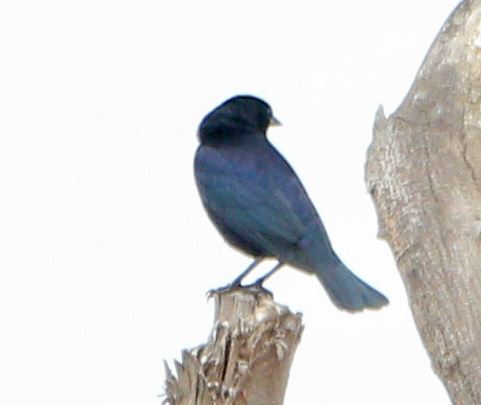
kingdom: Animalia
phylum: Chordata
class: Aves
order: Passeriformes
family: Icteridae
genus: Molothrus
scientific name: Molothrus bonariensis
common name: Shiny cowbird
